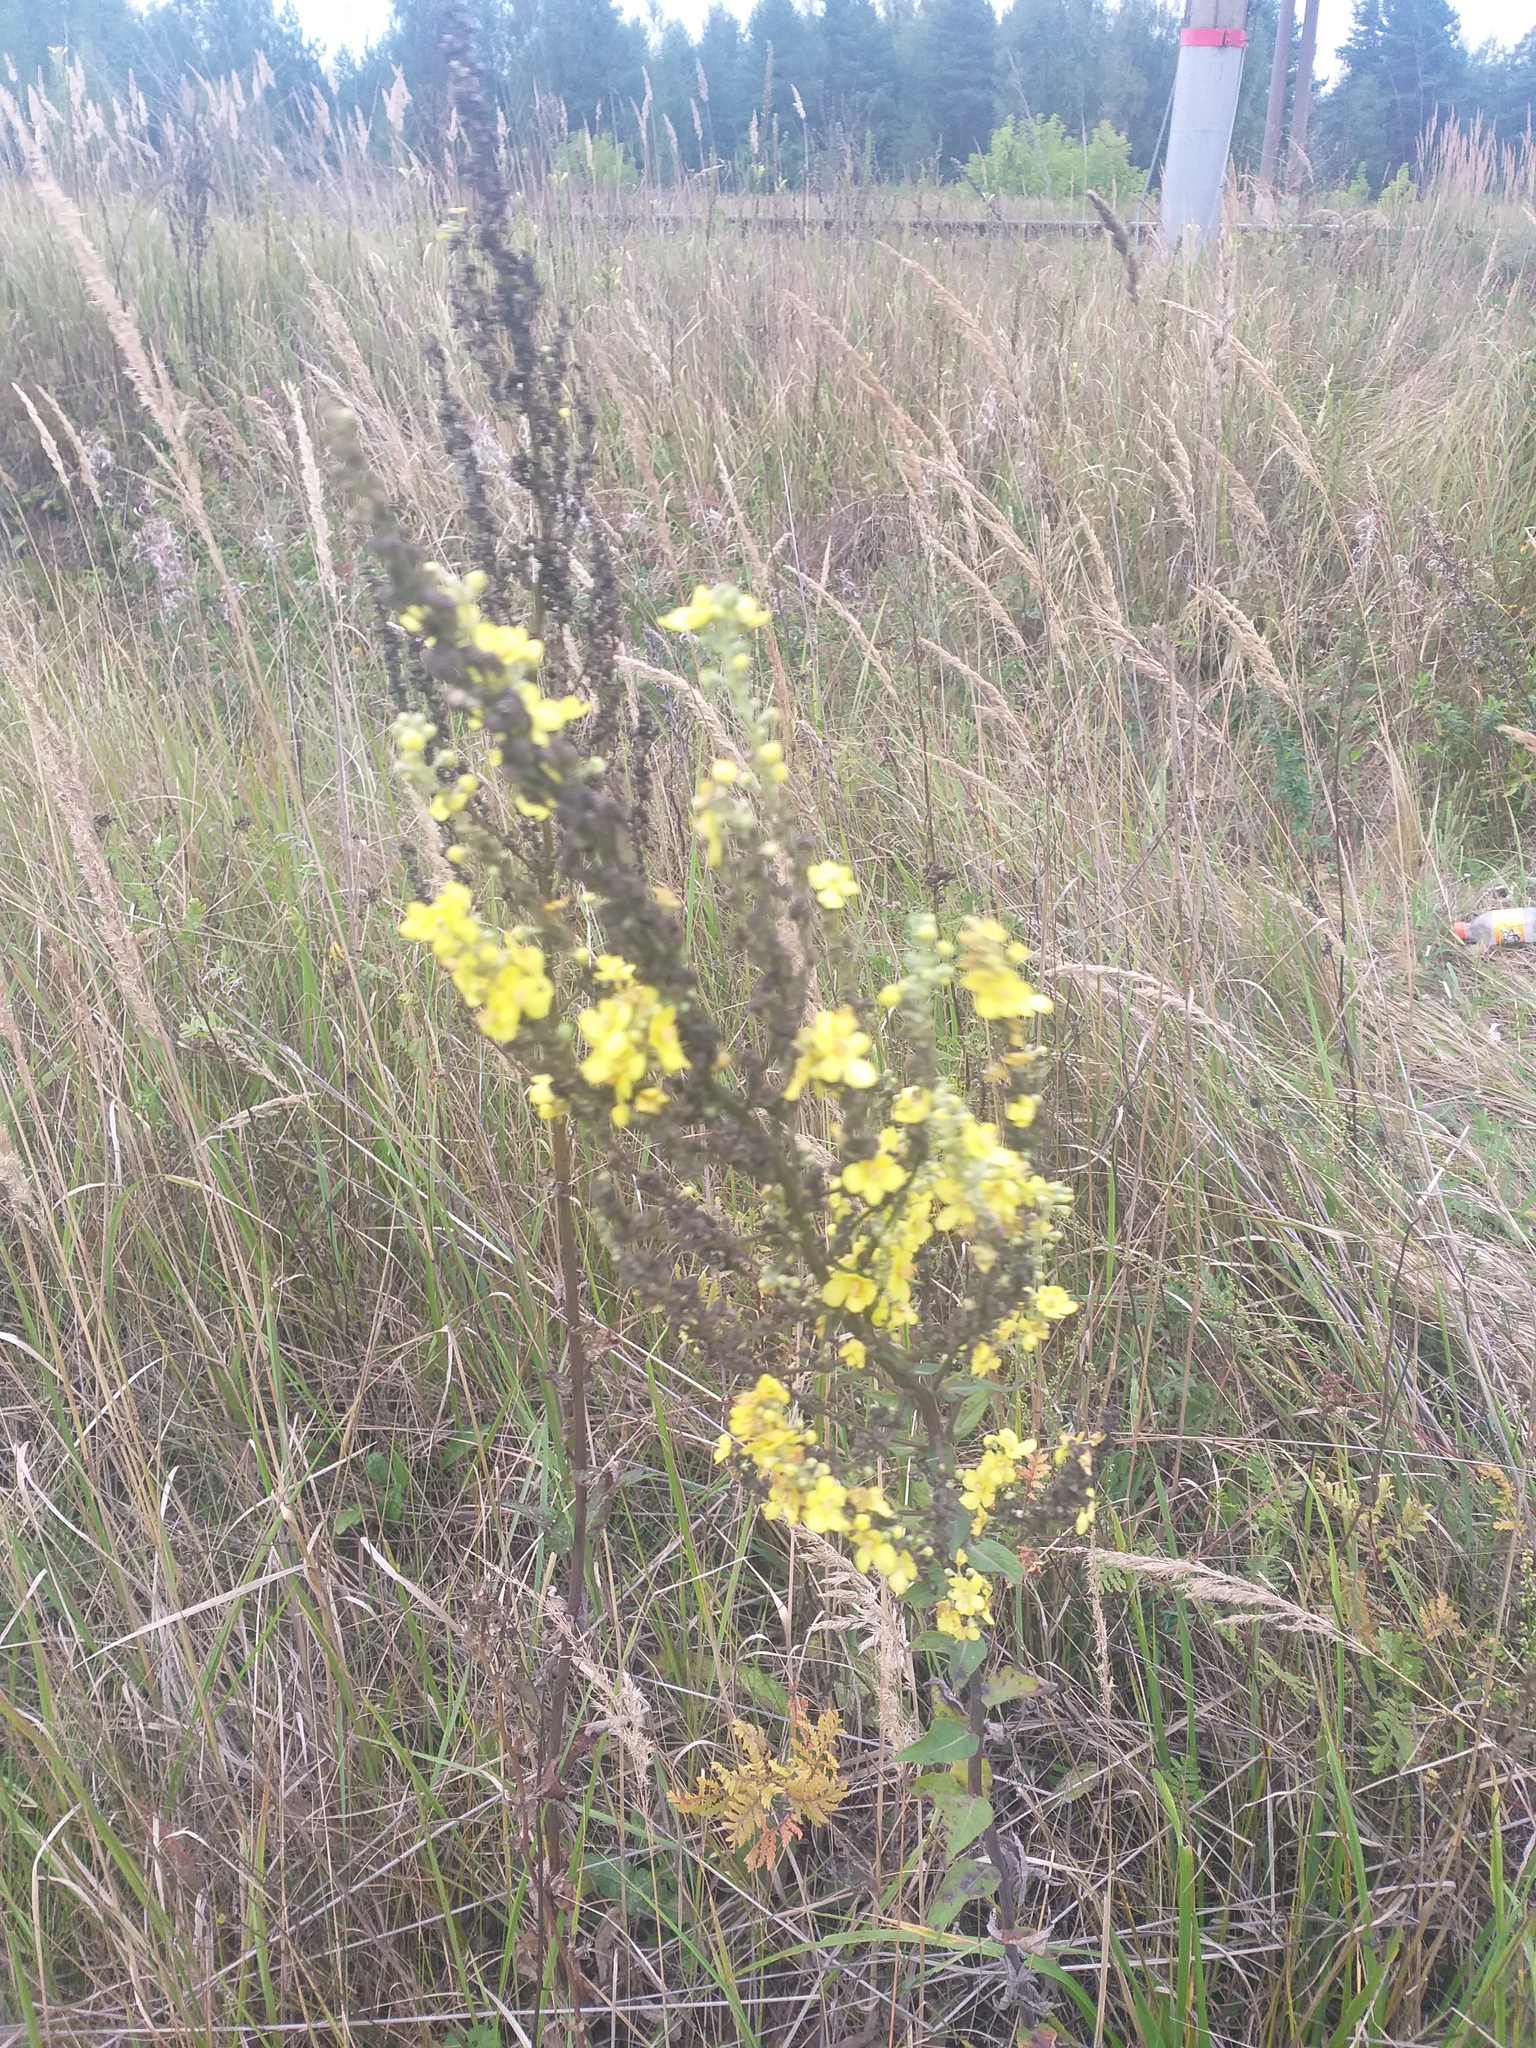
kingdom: Plantae
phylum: Tracheophyta
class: Magnoliopsida
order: Lamiales
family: Scrophulariaceae
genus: Verbascum
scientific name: Verbascum lychnitis
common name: White mullein
